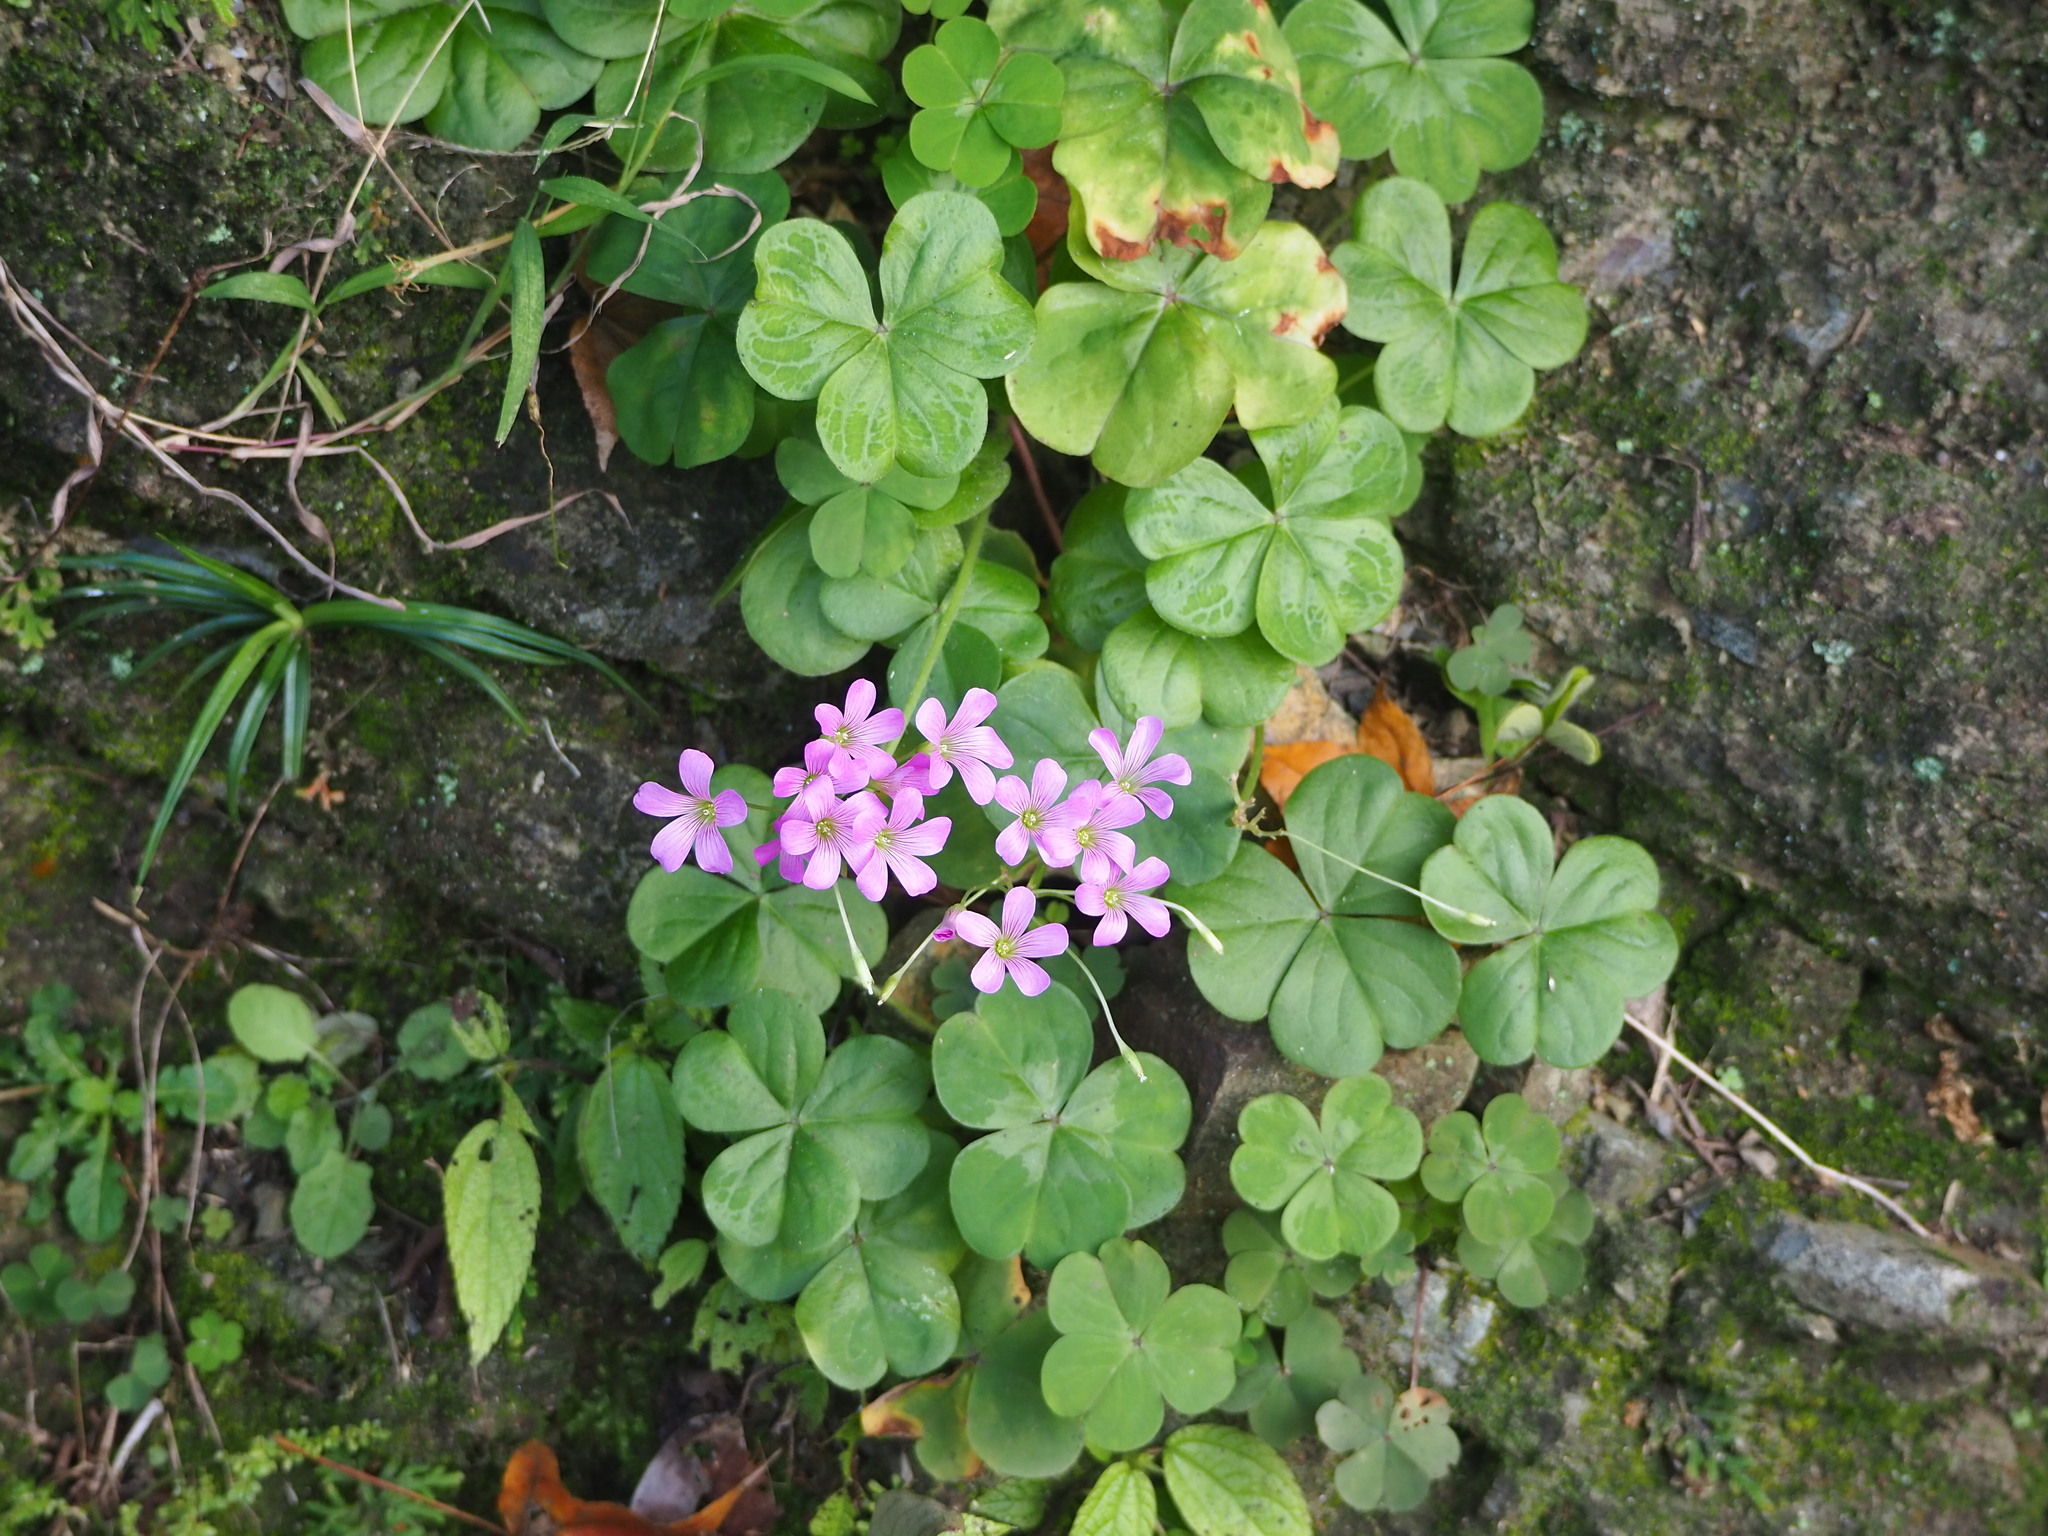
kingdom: Plantae
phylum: Tracheophyta
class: Magnoliopsida
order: Oxalidales
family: Oxalidaceae
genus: Oxalis
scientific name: Oxalis debilis
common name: Large-flowered pink-sorrel
